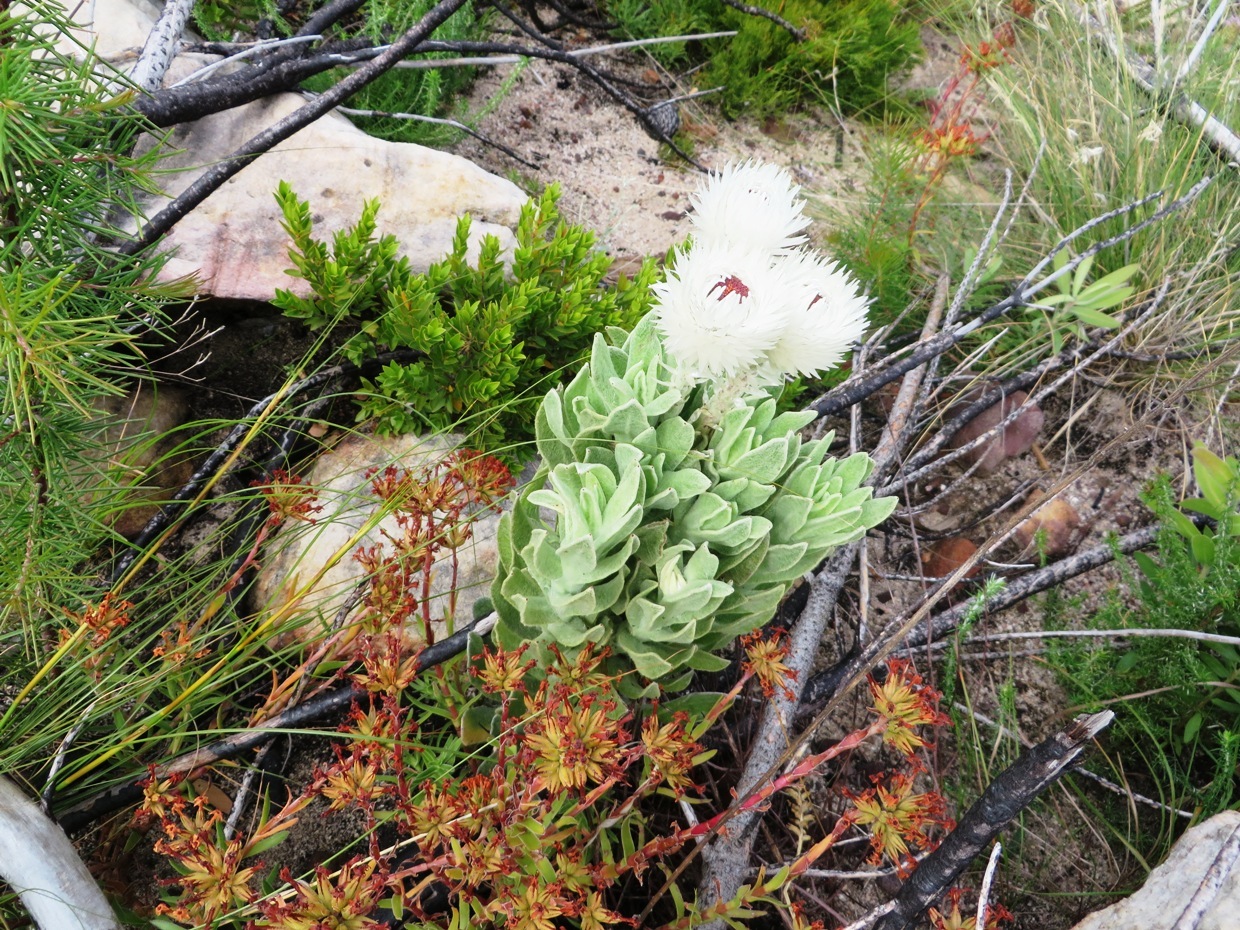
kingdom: Plantae
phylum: Tracheophyta
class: Magnoliopsida
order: Asterales
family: Asteraceae
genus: Syncarpha
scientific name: Syncarpha vestita
